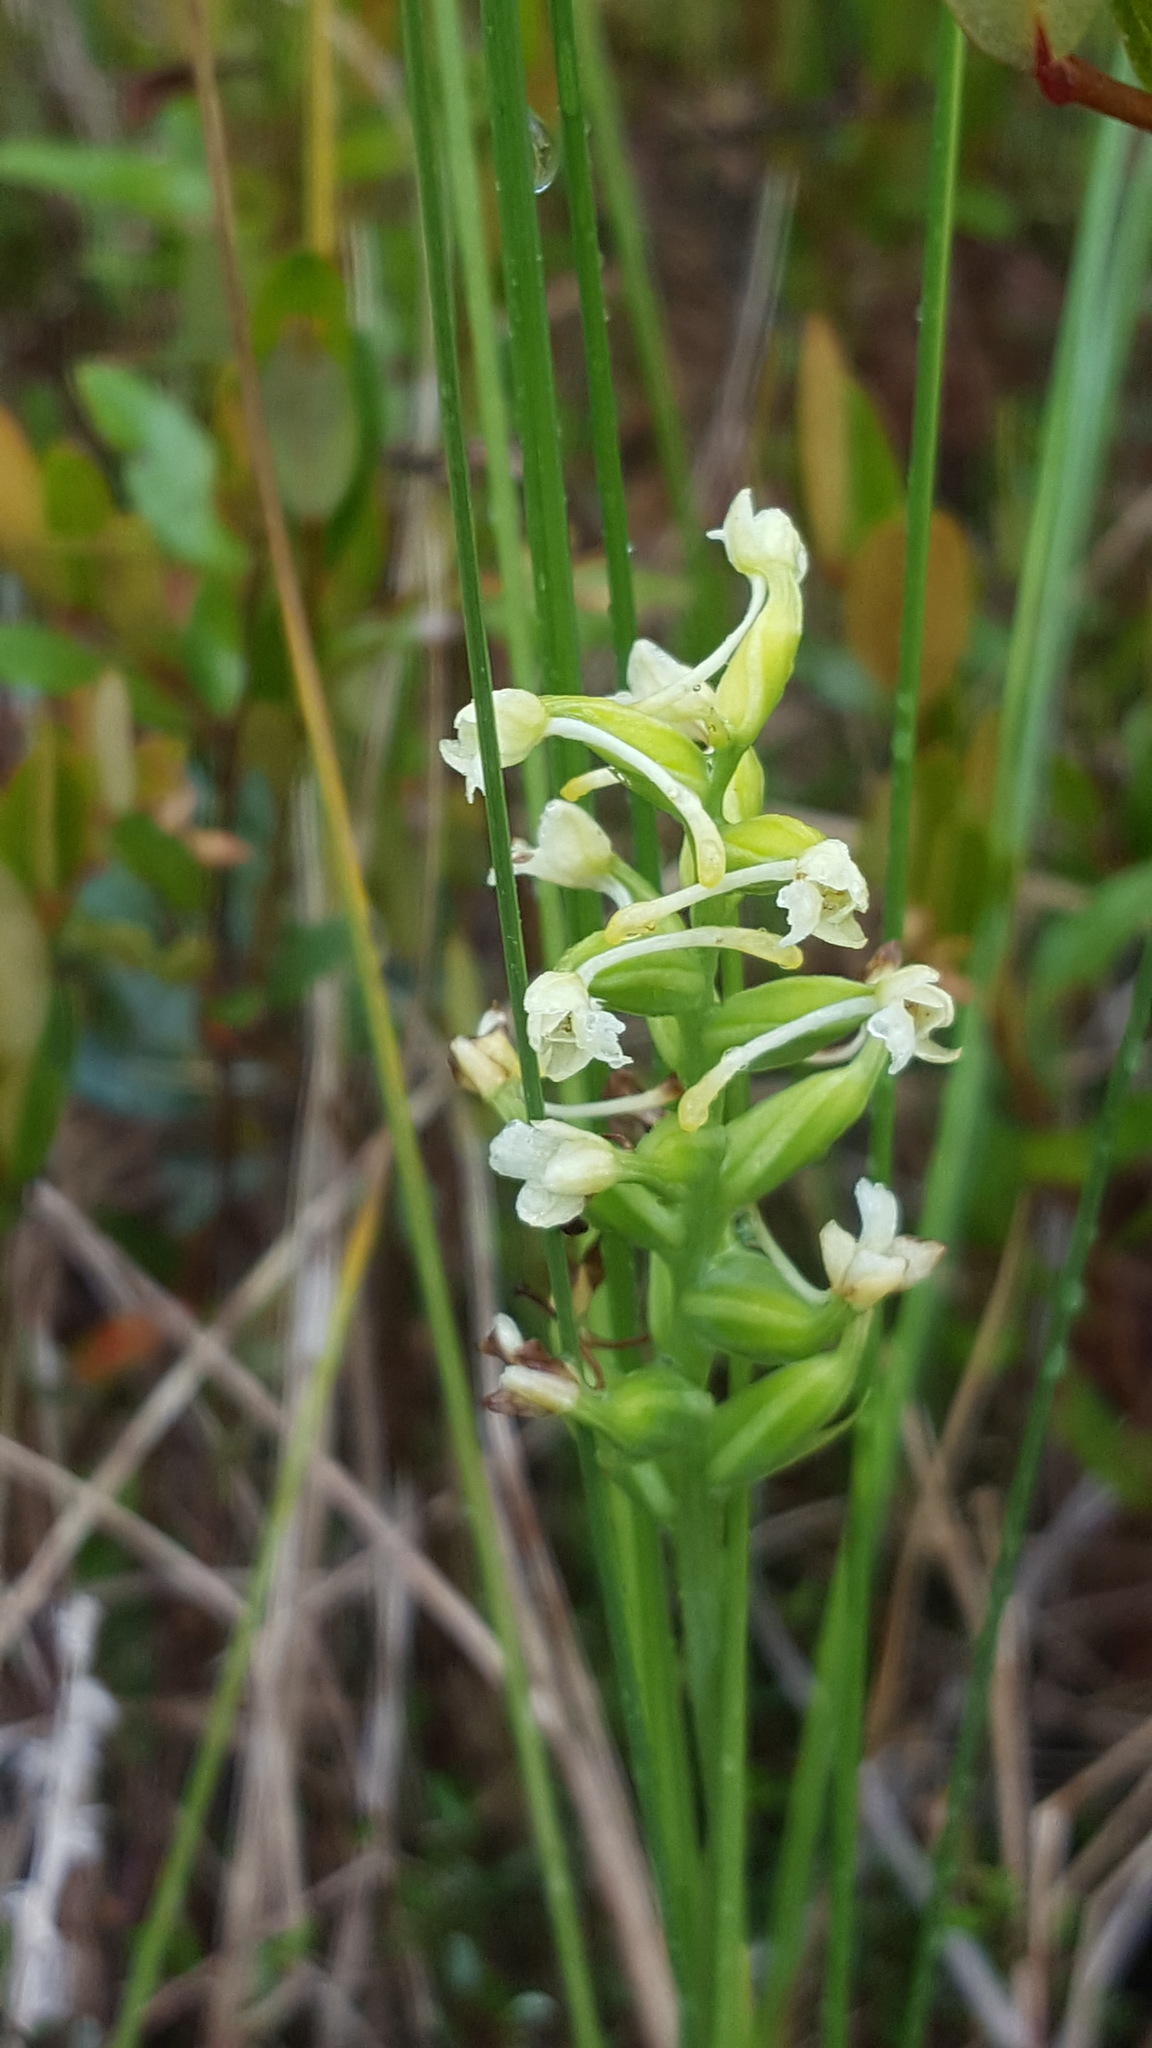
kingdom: Plantae
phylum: Tracheophyta
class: Liliopsida
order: Asparagales
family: Orchidaceae
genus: Platanthera
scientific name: Platanthera clavellata
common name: Club-spur orchid
